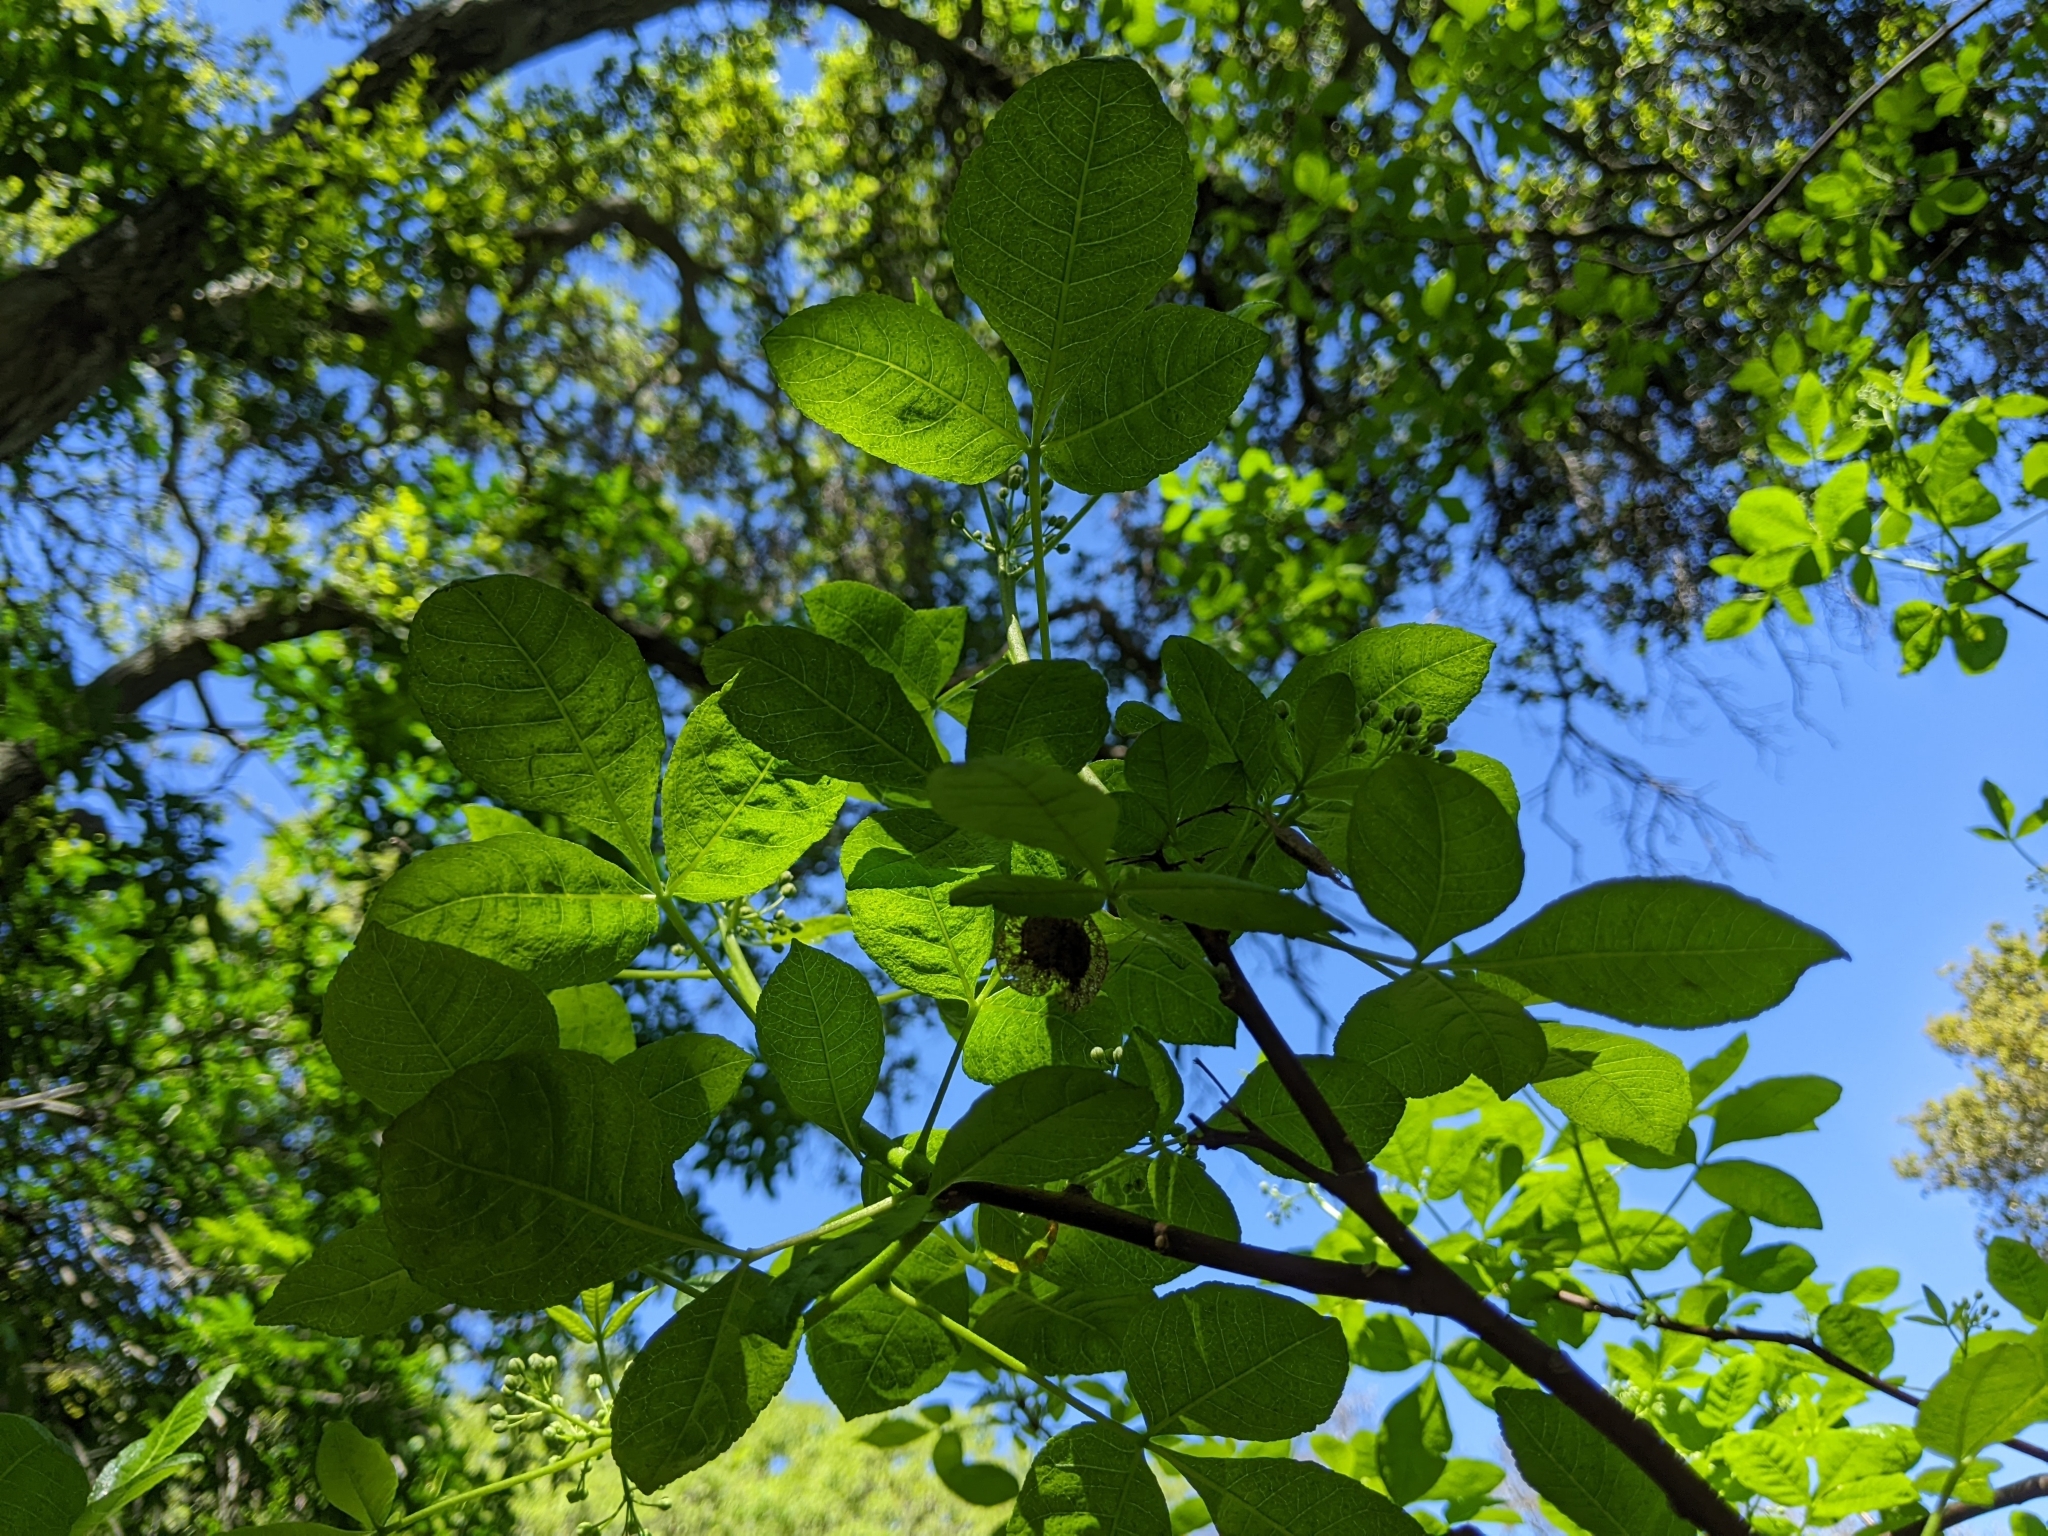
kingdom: Plantae
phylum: Tracheophyta
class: Magnoliopsida
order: Sapindales
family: Rutaceae
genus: Ptelea
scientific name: Ptelea crenulata
